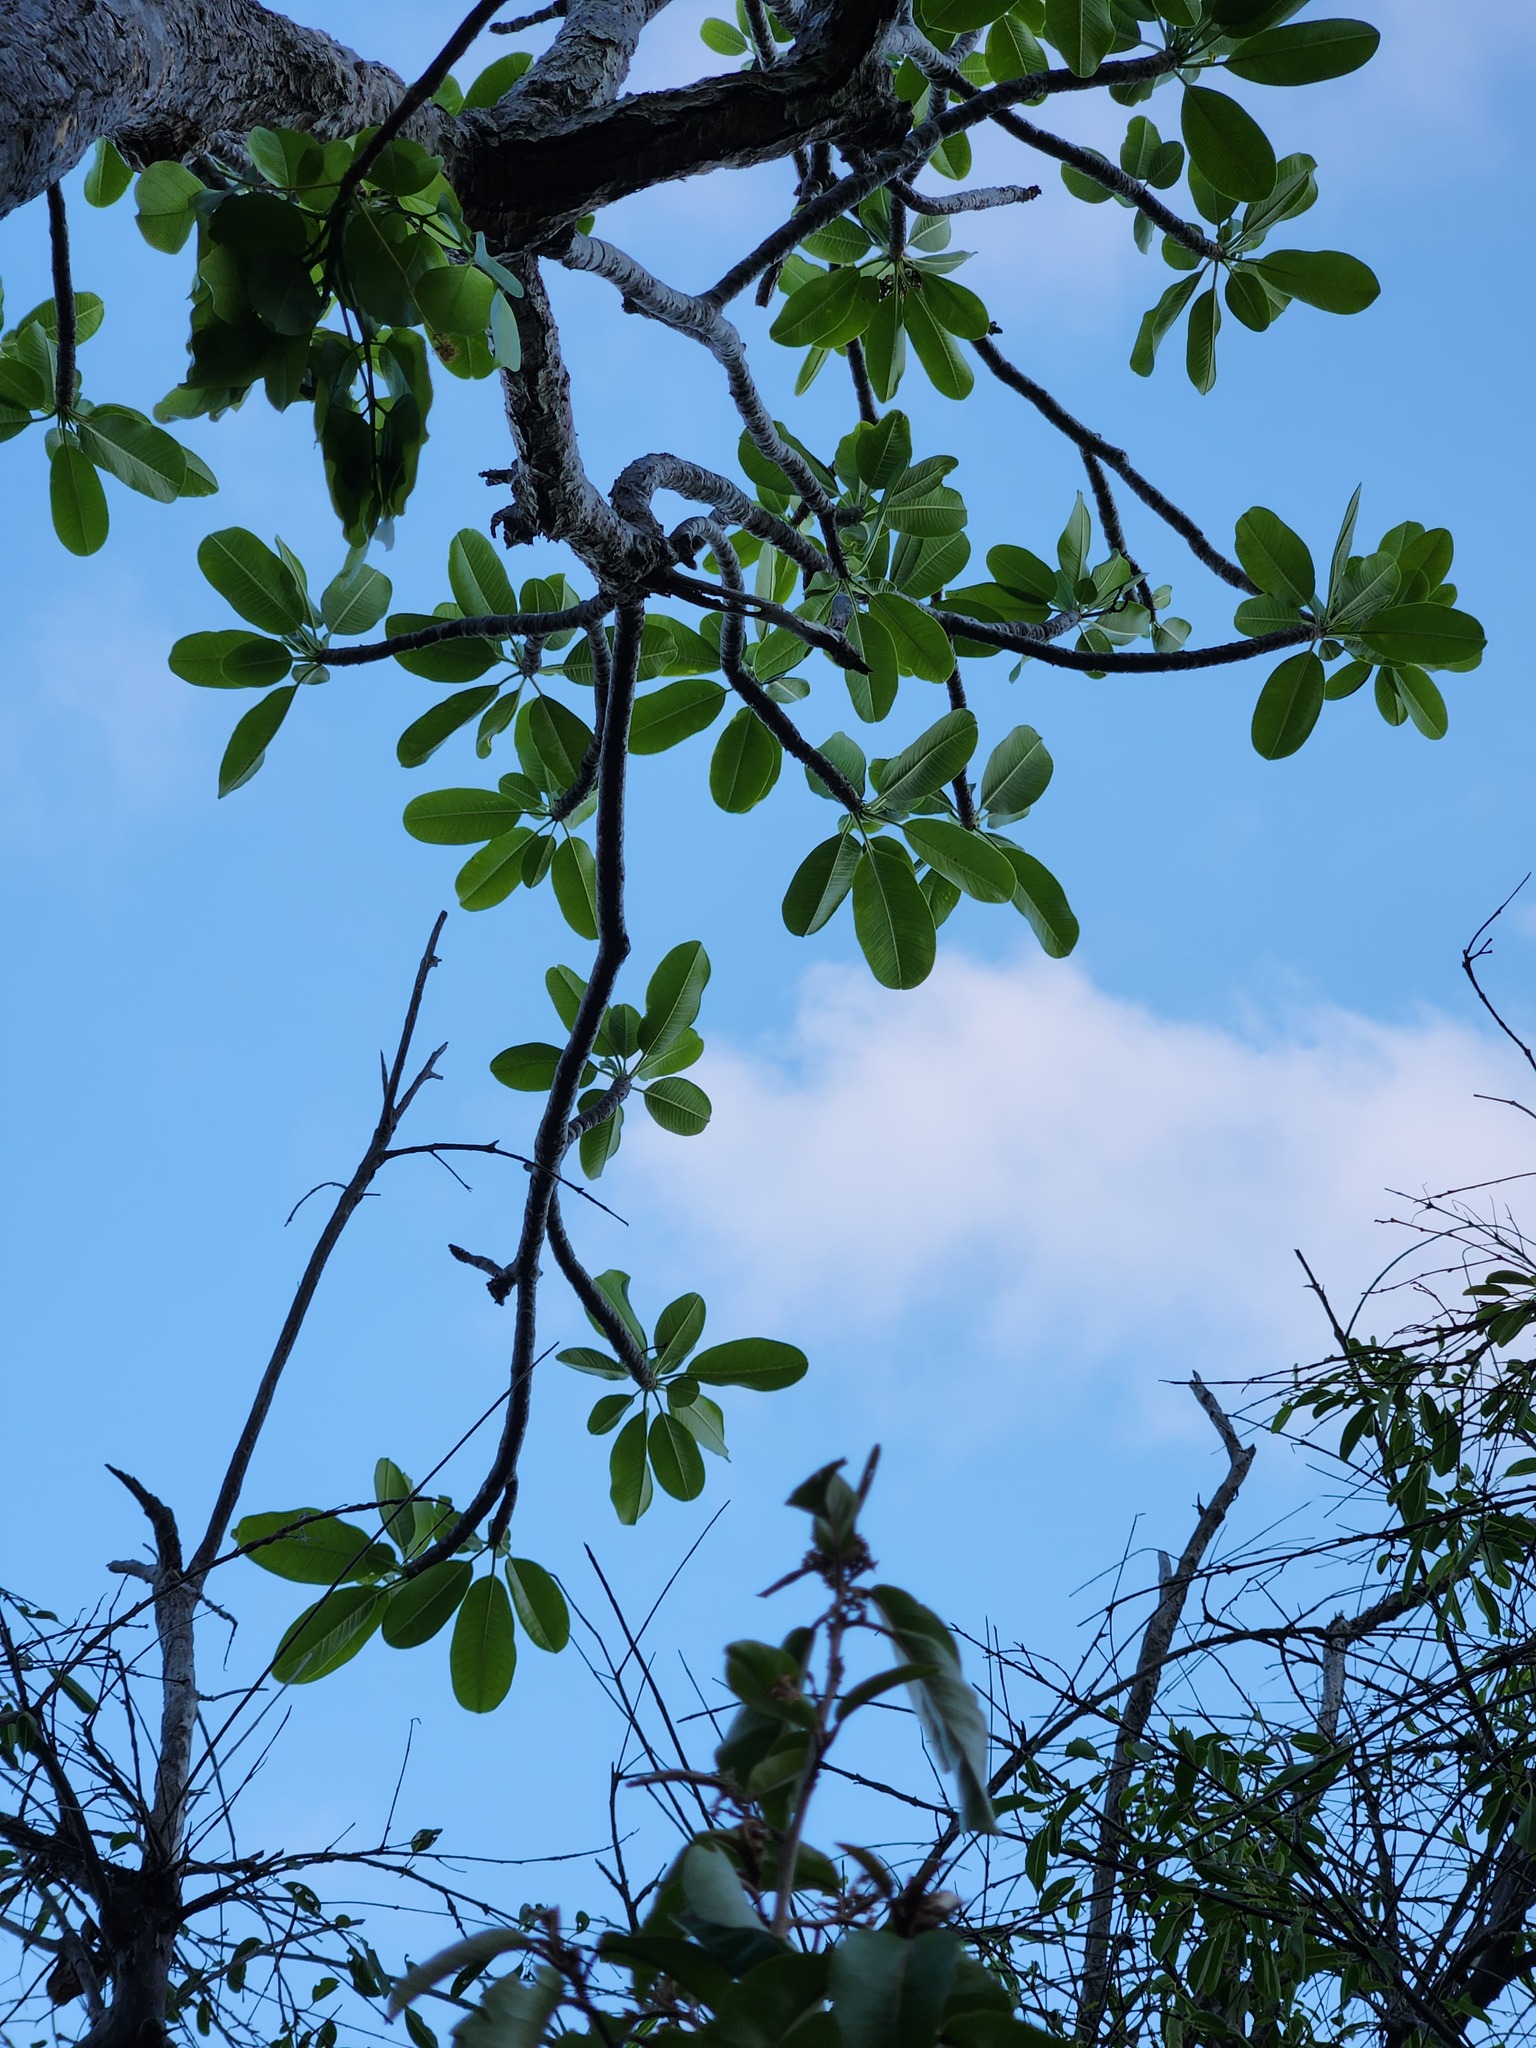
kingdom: Plantae
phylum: Tracheophyta
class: Magnoliopsida
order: Gentianales
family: Apocynaceae
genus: Plumeria
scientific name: Plumeria obtusa
